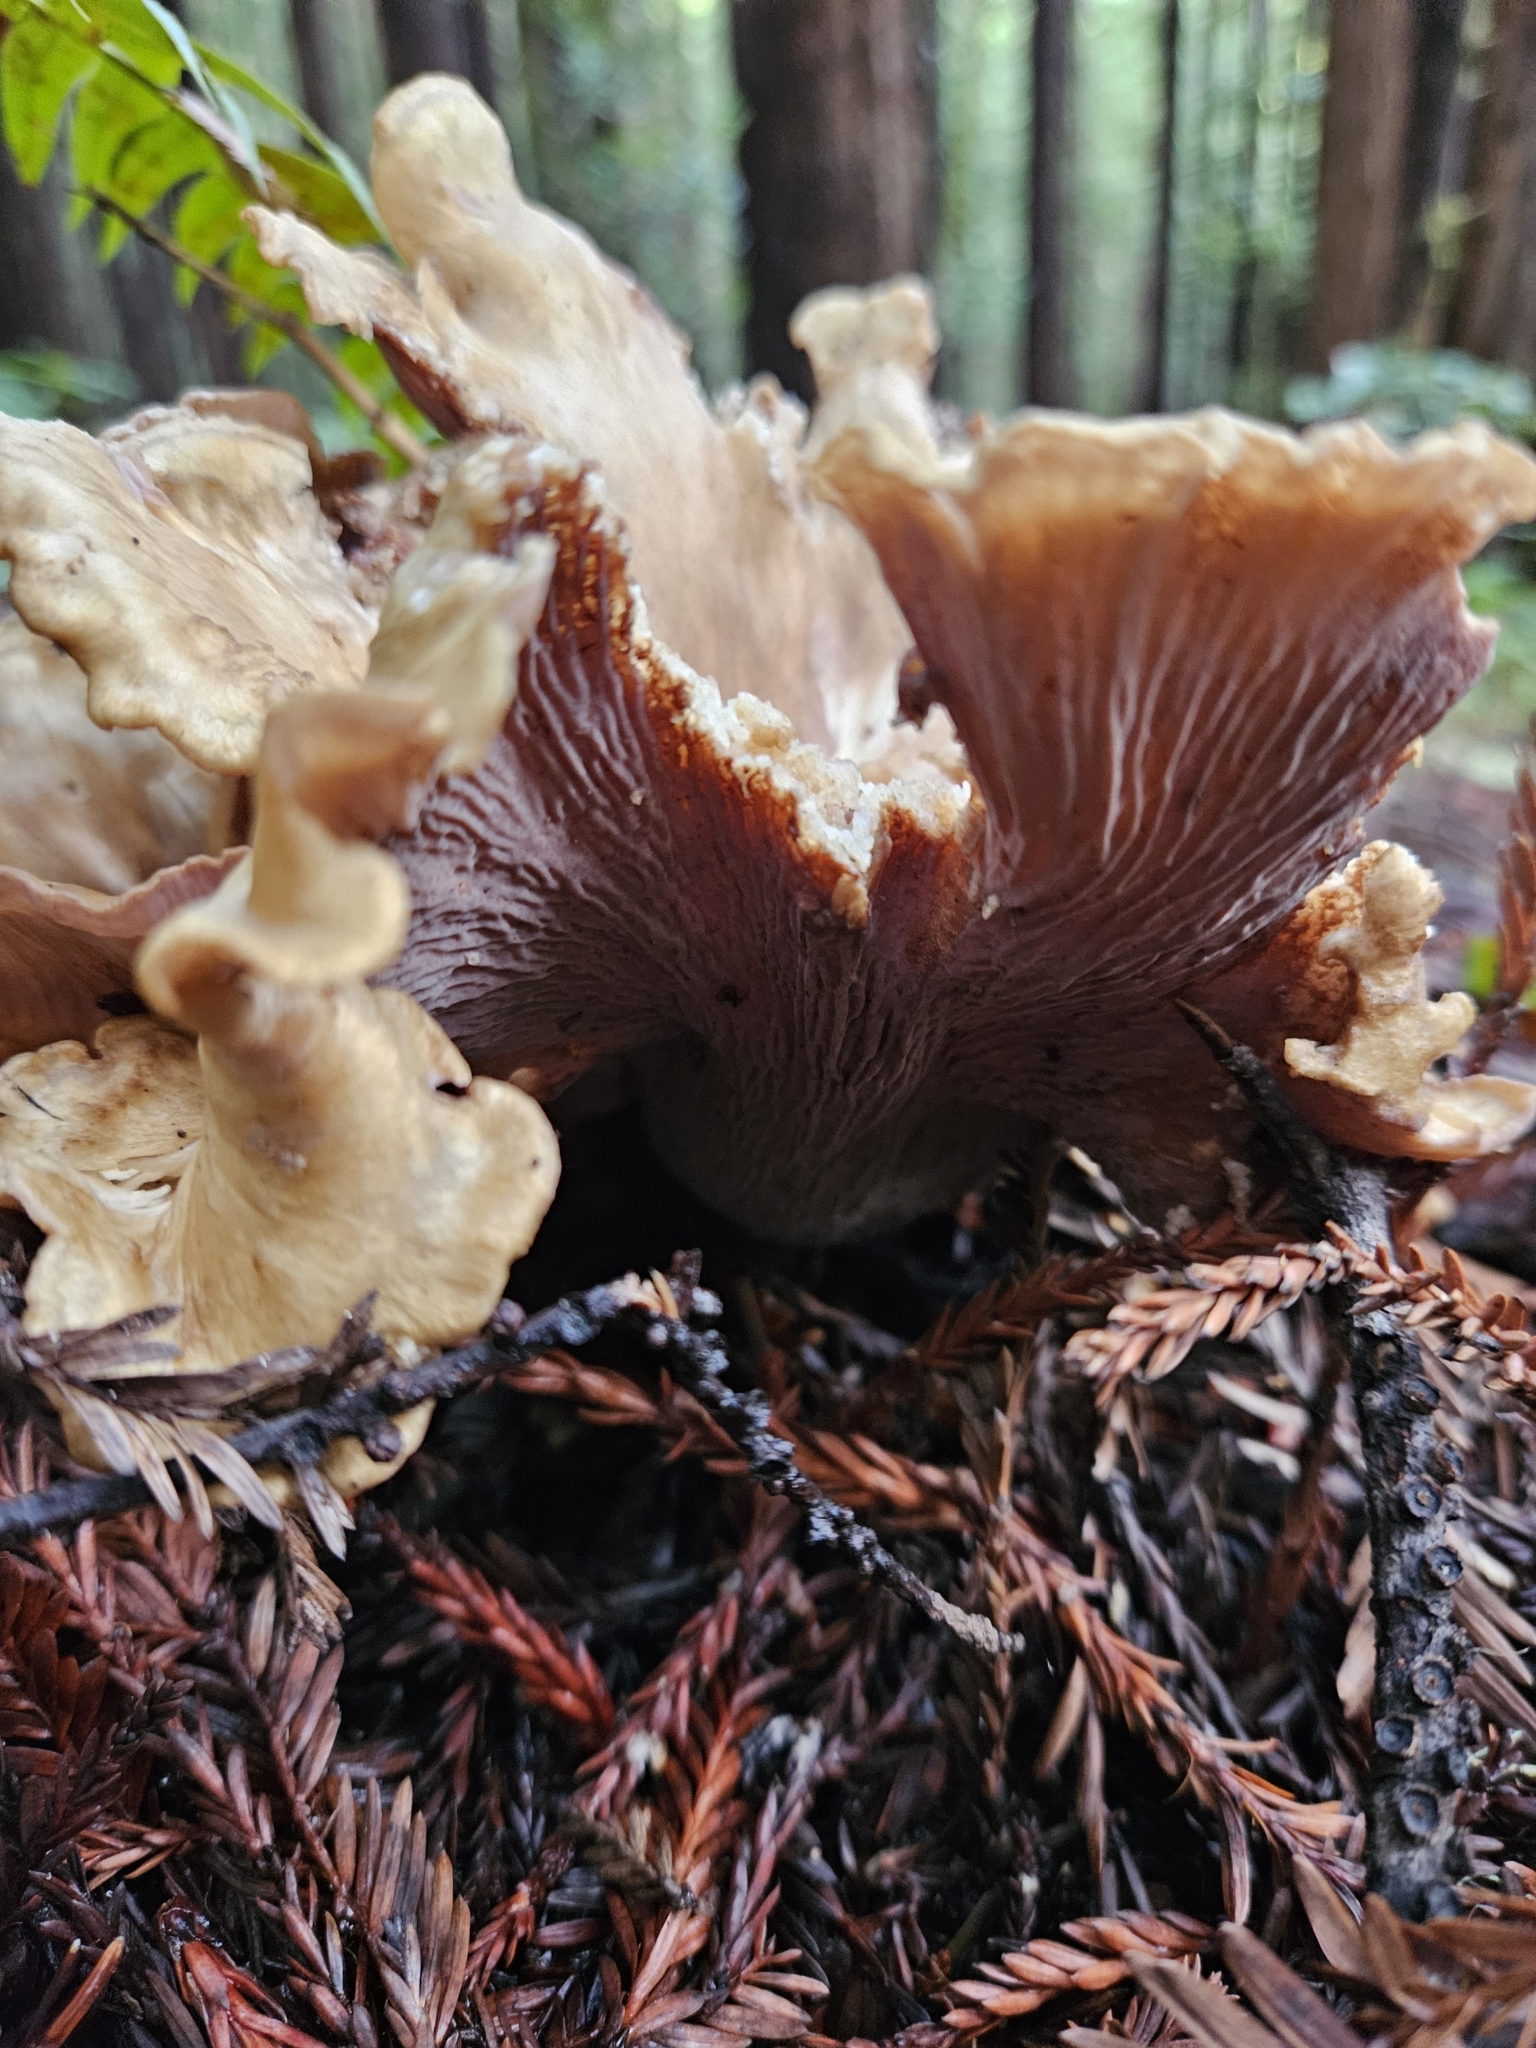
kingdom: Fungi
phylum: Basidiomycota
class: Agaricomycetes
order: Gomphales
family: Gomphaceae
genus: Gomphus
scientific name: Gomphus clavatus
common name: Pig's ear
